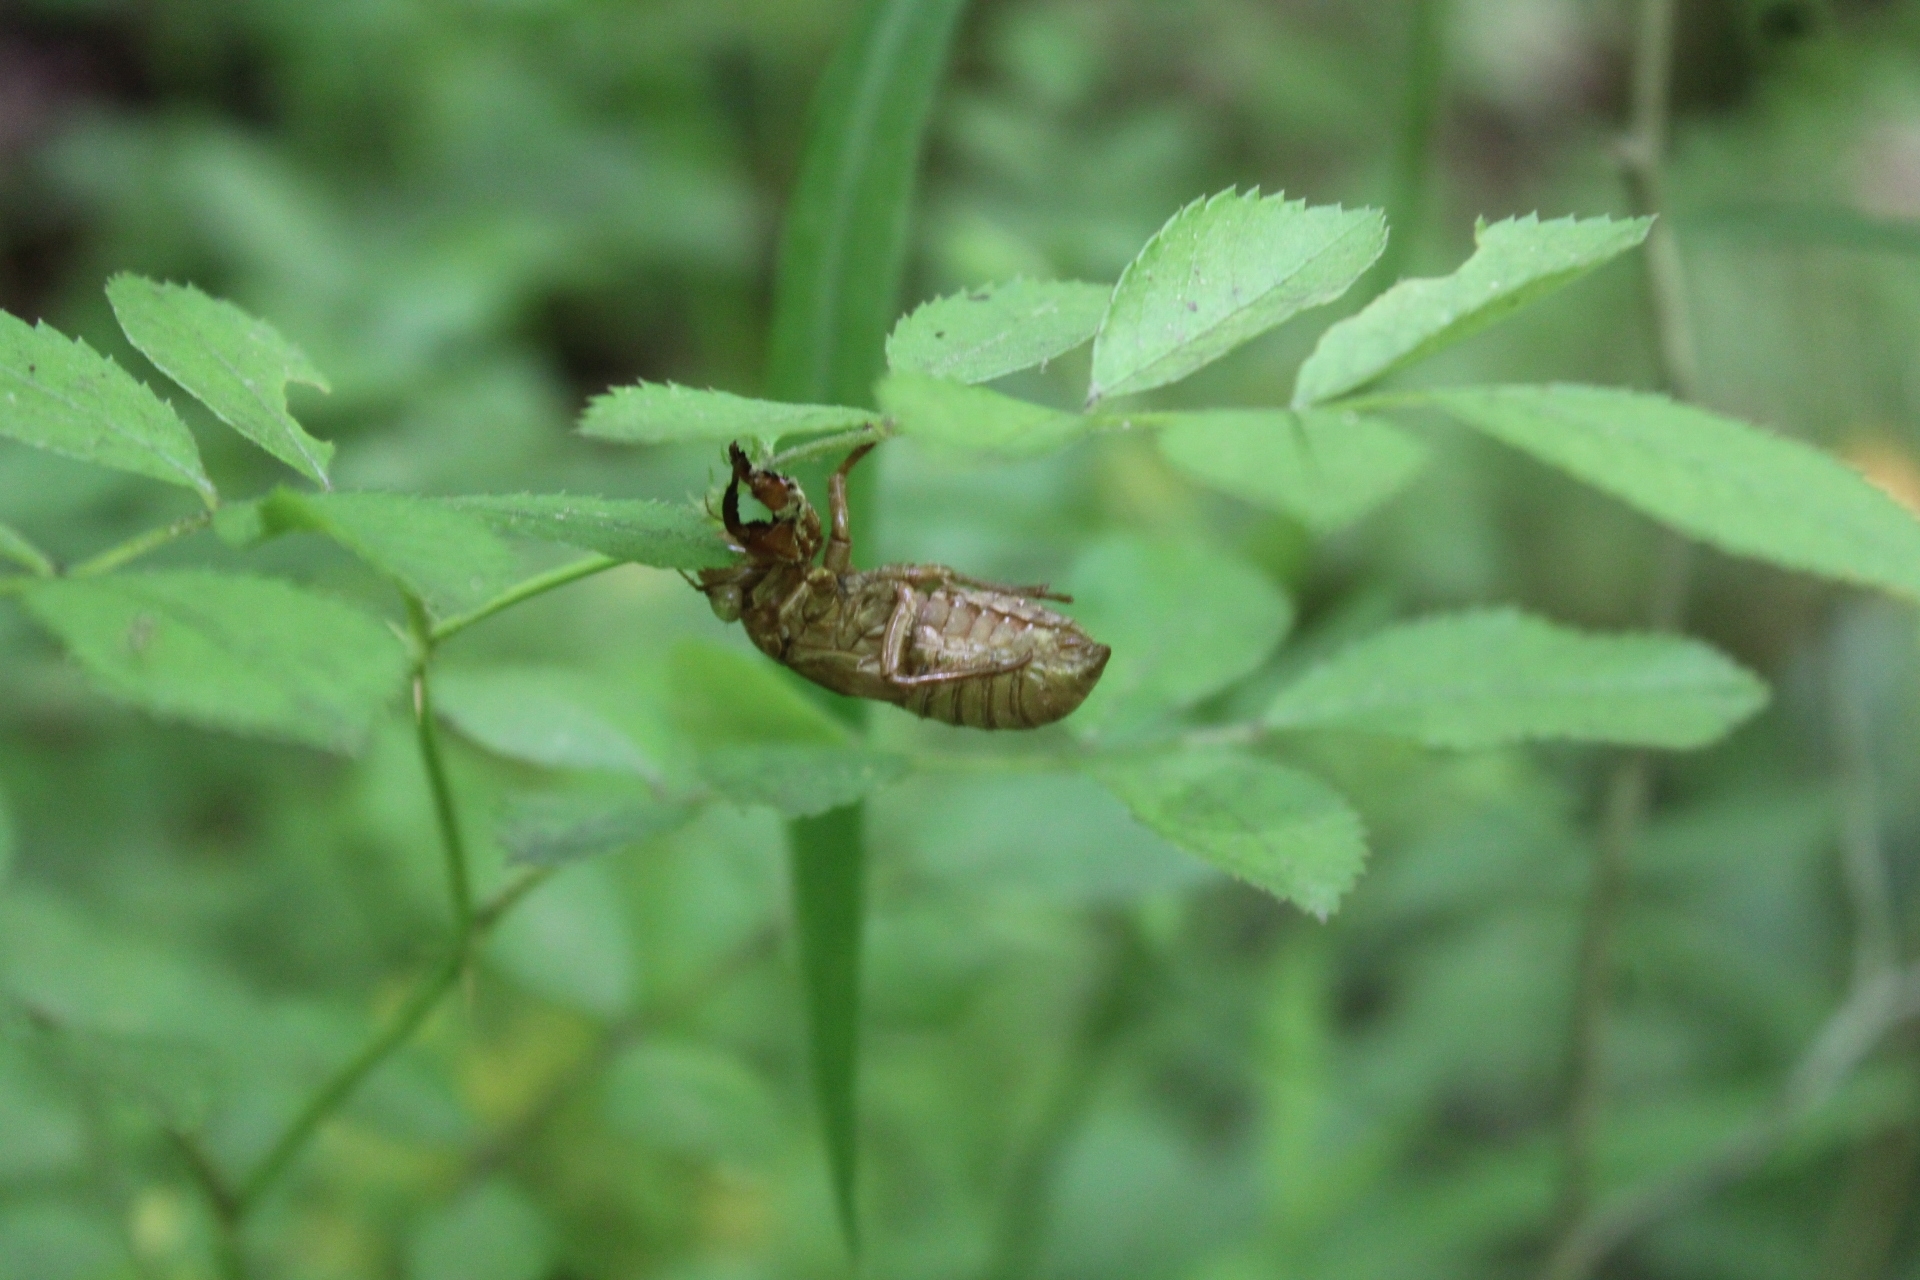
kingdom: Animalia
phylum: Arthropoda
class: Insecta
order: Hemiptera
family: Cicadidae
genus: Magicicada
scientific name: Magicicada
